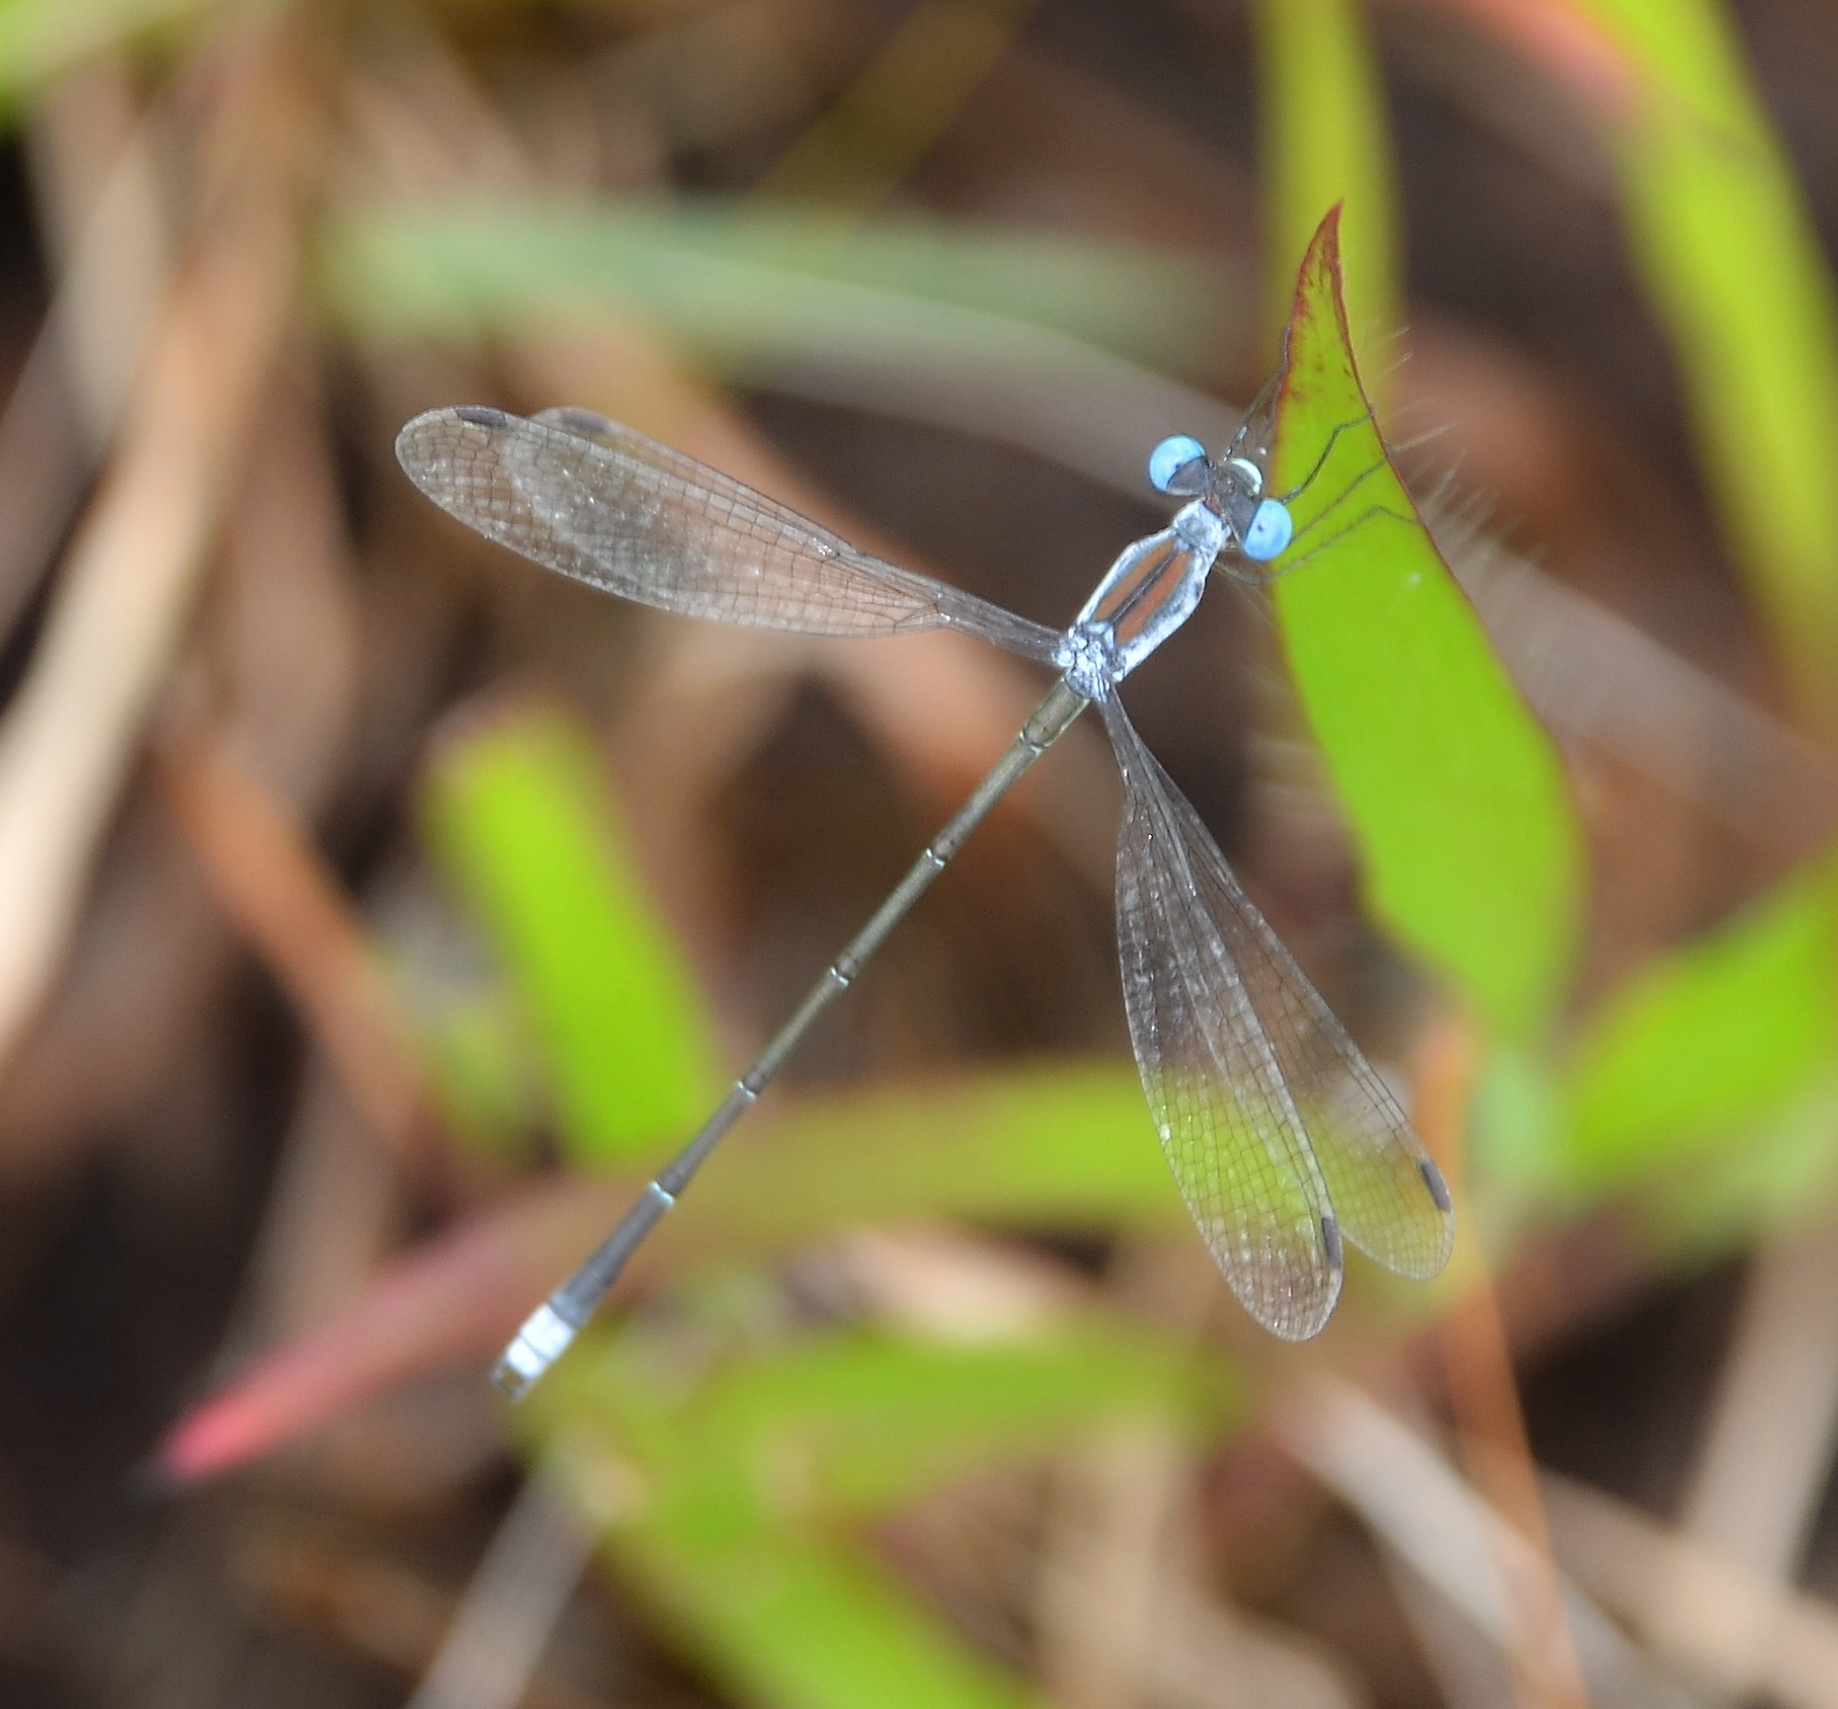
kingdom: Animalia
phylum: Arthropoda
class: Insecta
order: Odonata
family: Lestidae
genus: Lestes
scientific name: Lestes malabaricus
